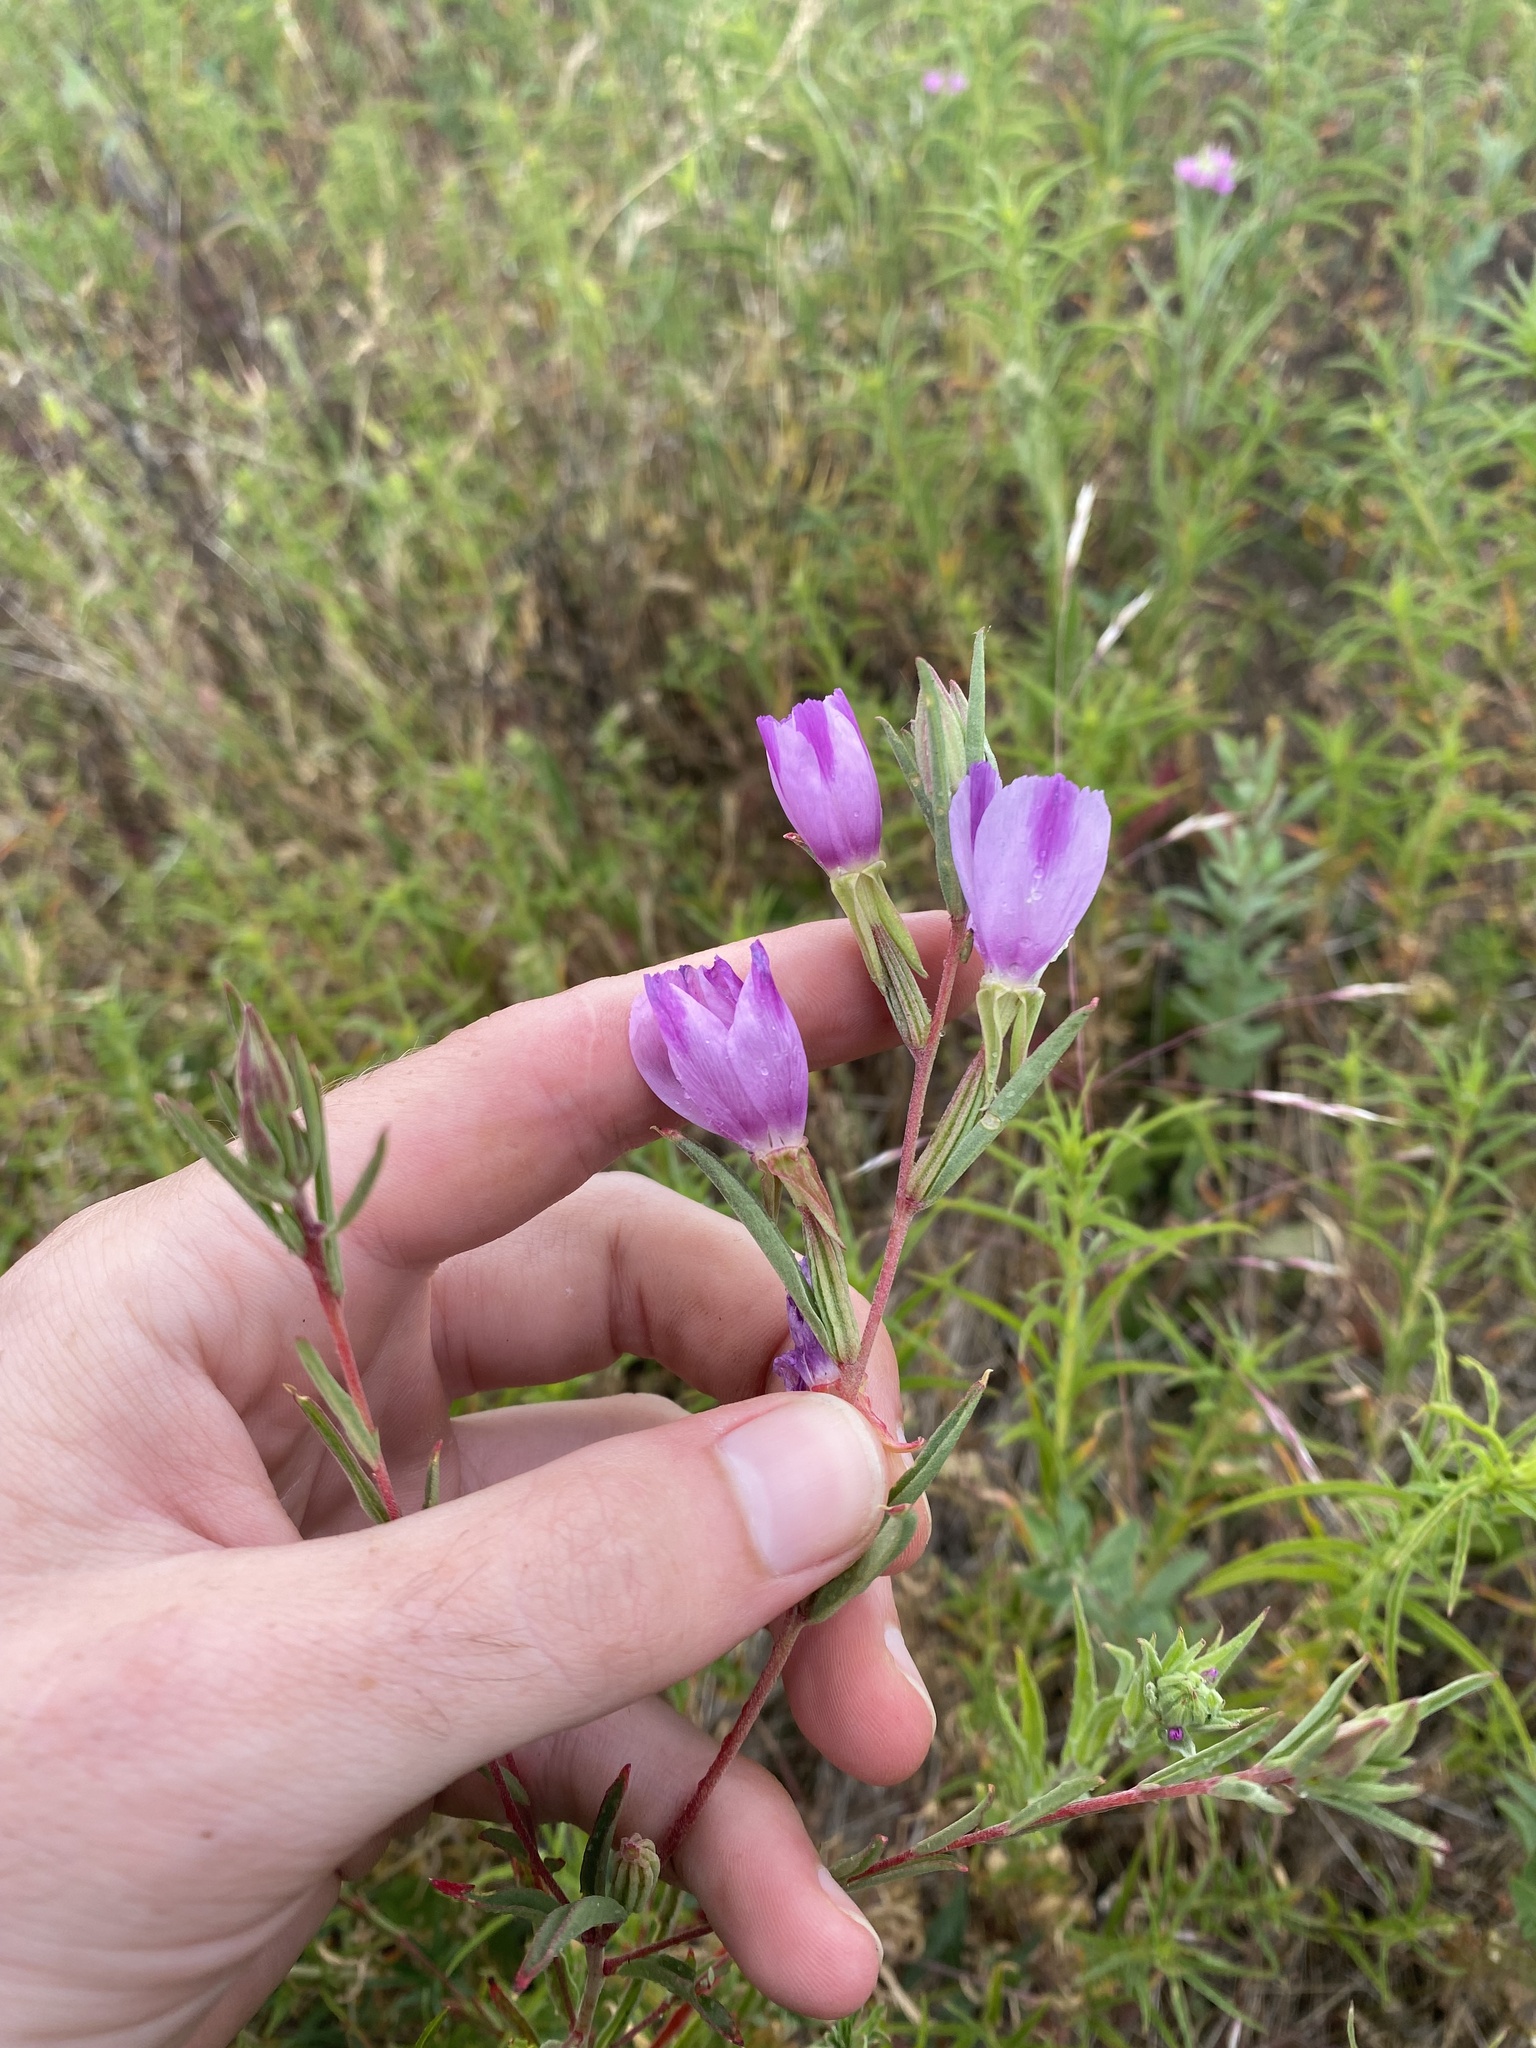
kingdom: Plantae
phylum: Tracheophyta
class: Magnoliopsida
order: Myrtales
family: Onagraceae
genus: Clarkia
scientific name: Clarkia purpurea
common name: Purple clarkia
